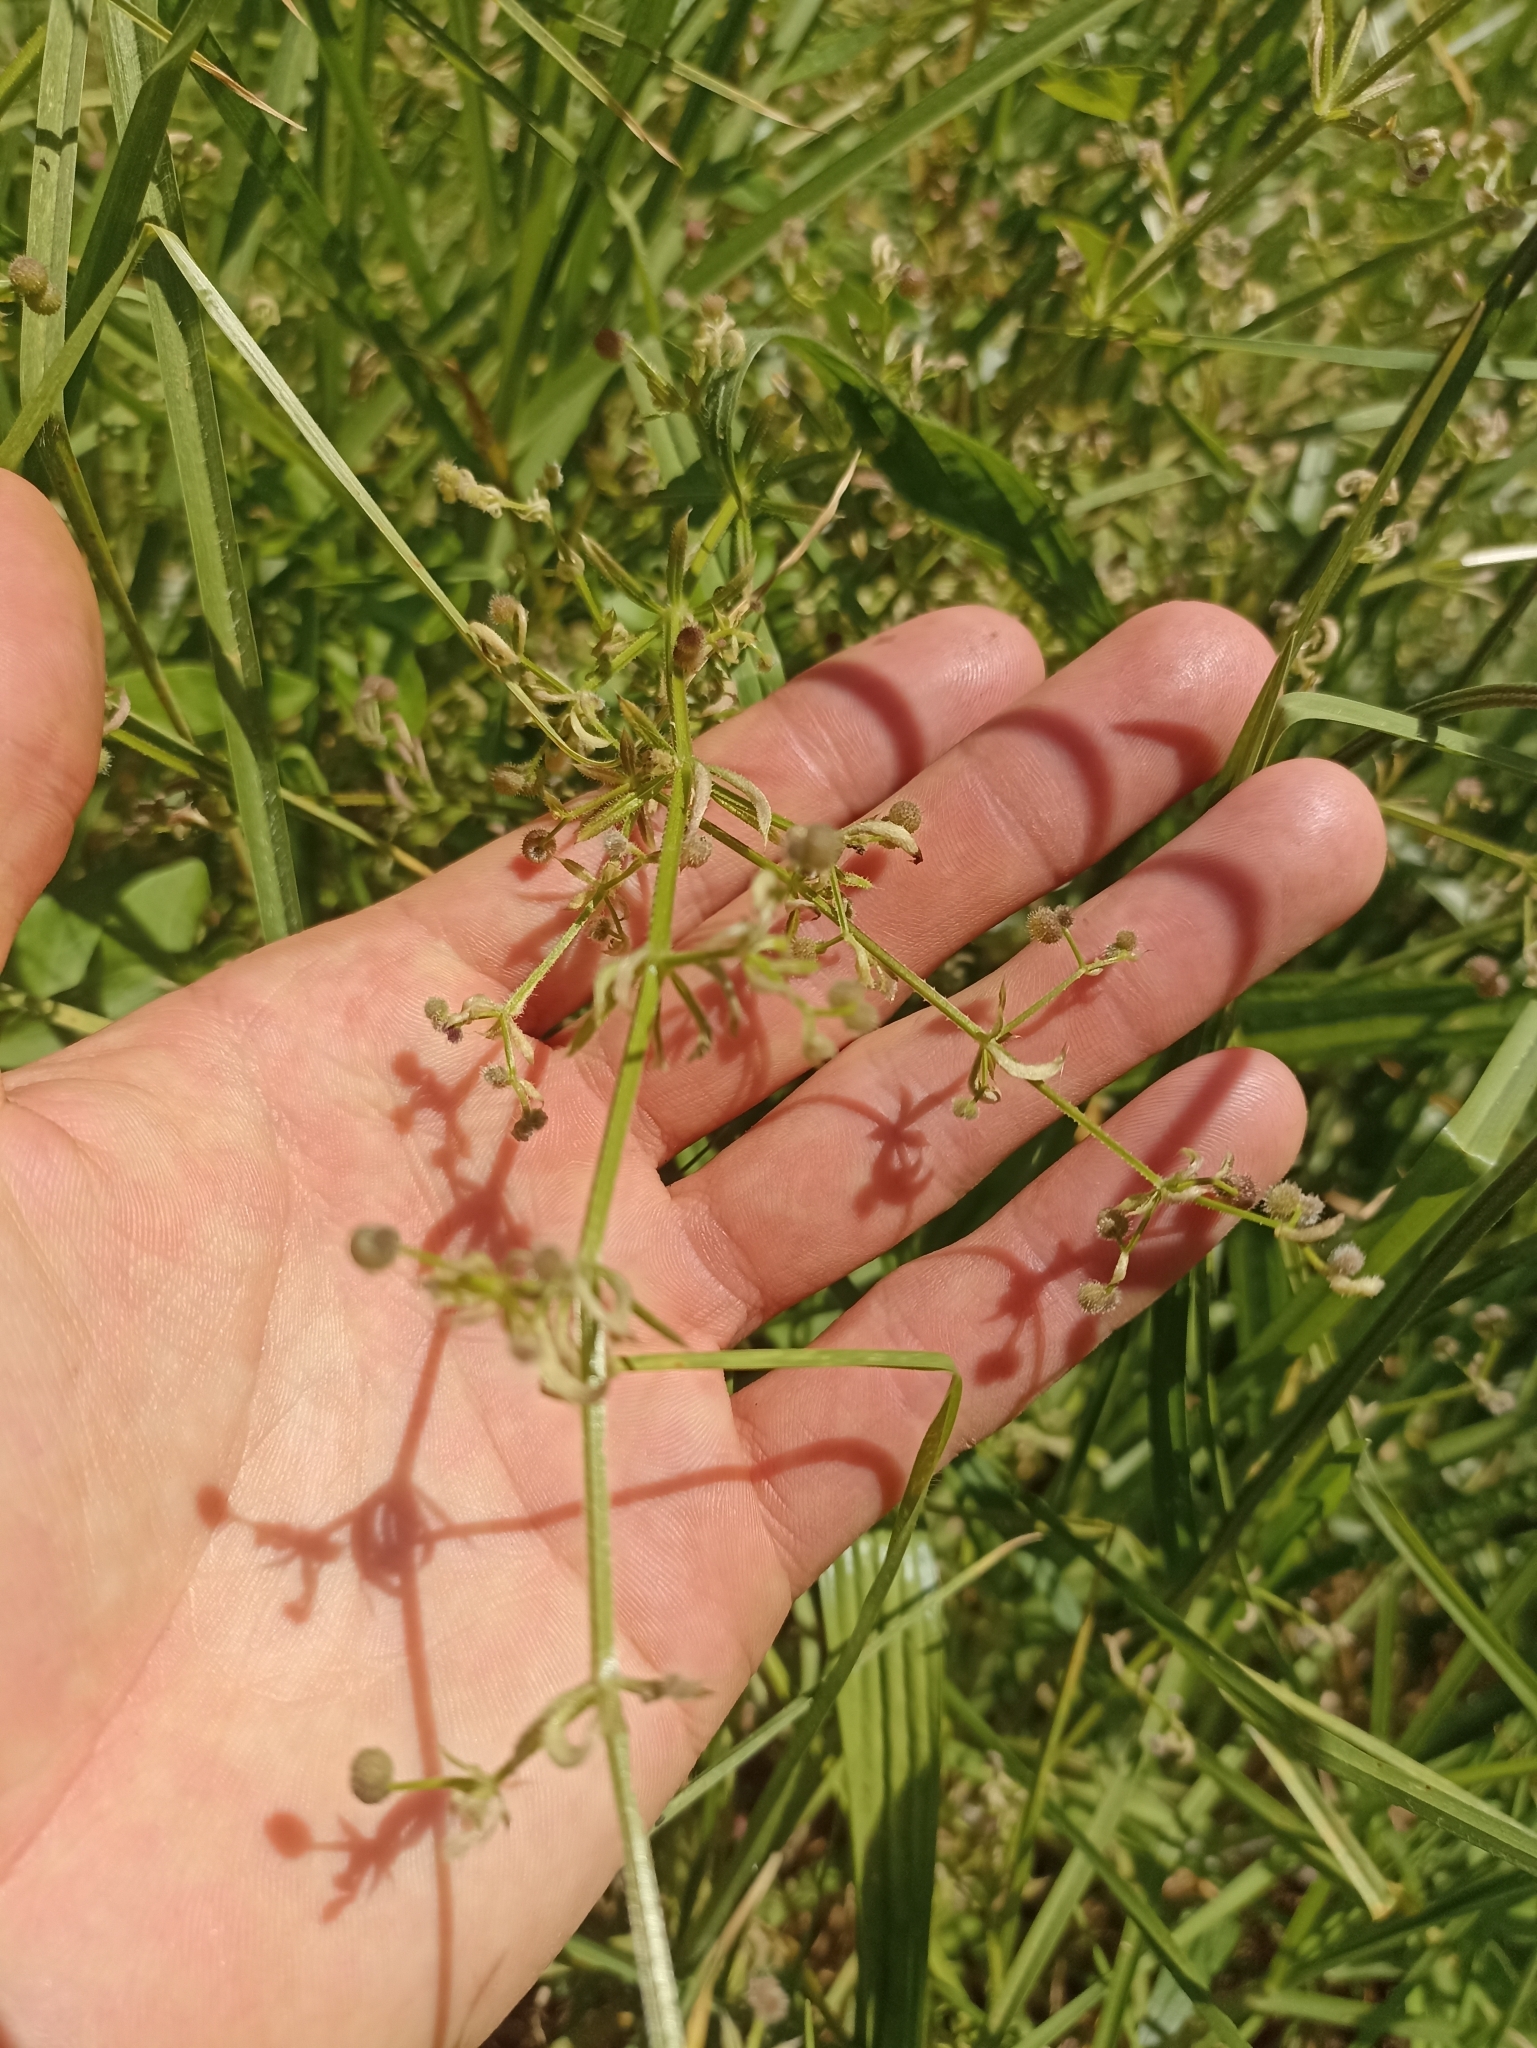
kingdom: Plantae
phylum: Tracheophyta
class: Magnoliopsida
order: Gentianales
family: Rubiaceae
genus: Galium
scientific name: Galium aparine
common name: Cleavers
